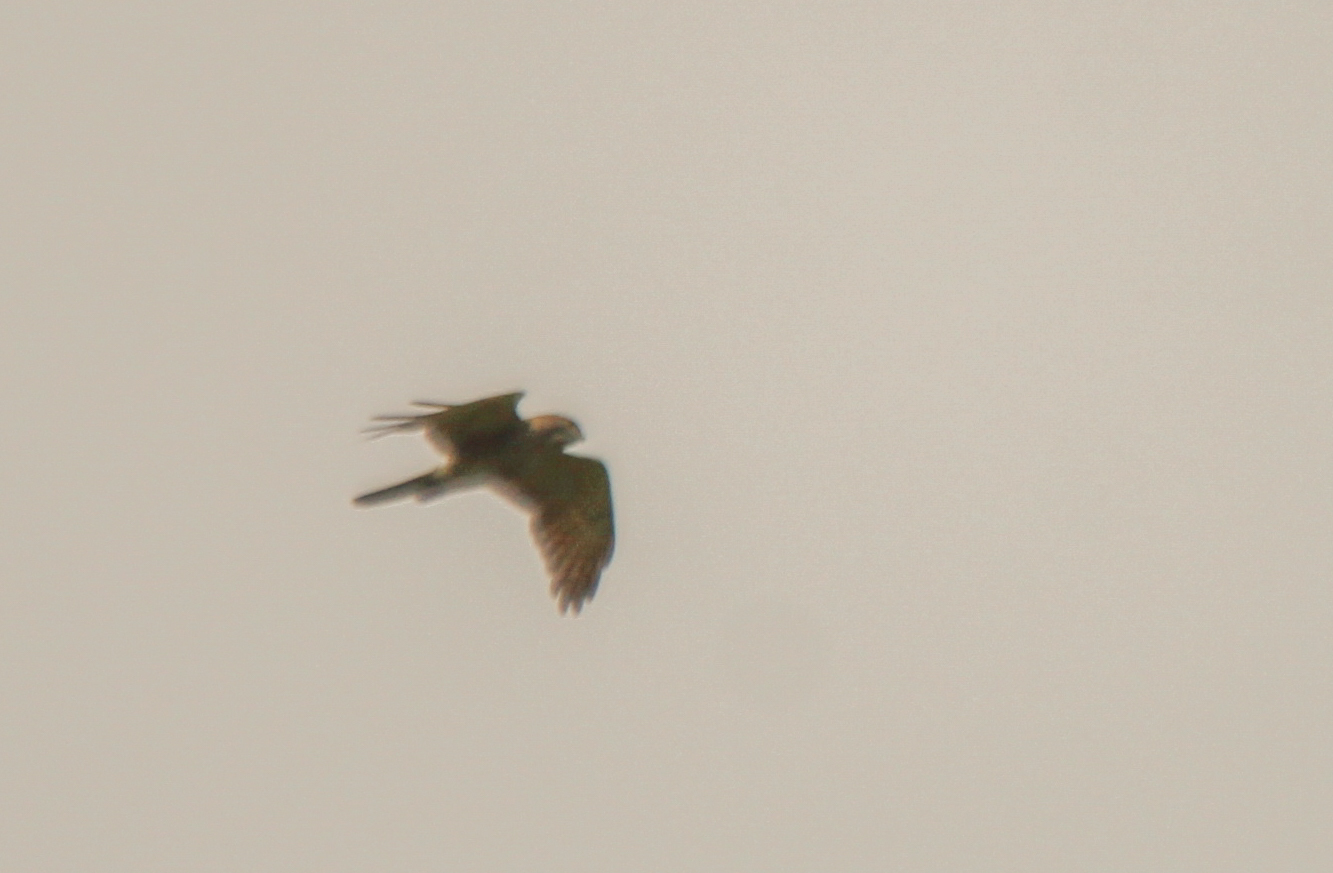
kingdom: Animalia
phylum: Chordata
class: Aves
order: Accipitriformes
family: Accipitridae
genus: Butastur
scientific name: Butastur indicus
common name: Grey-faced buzzard
